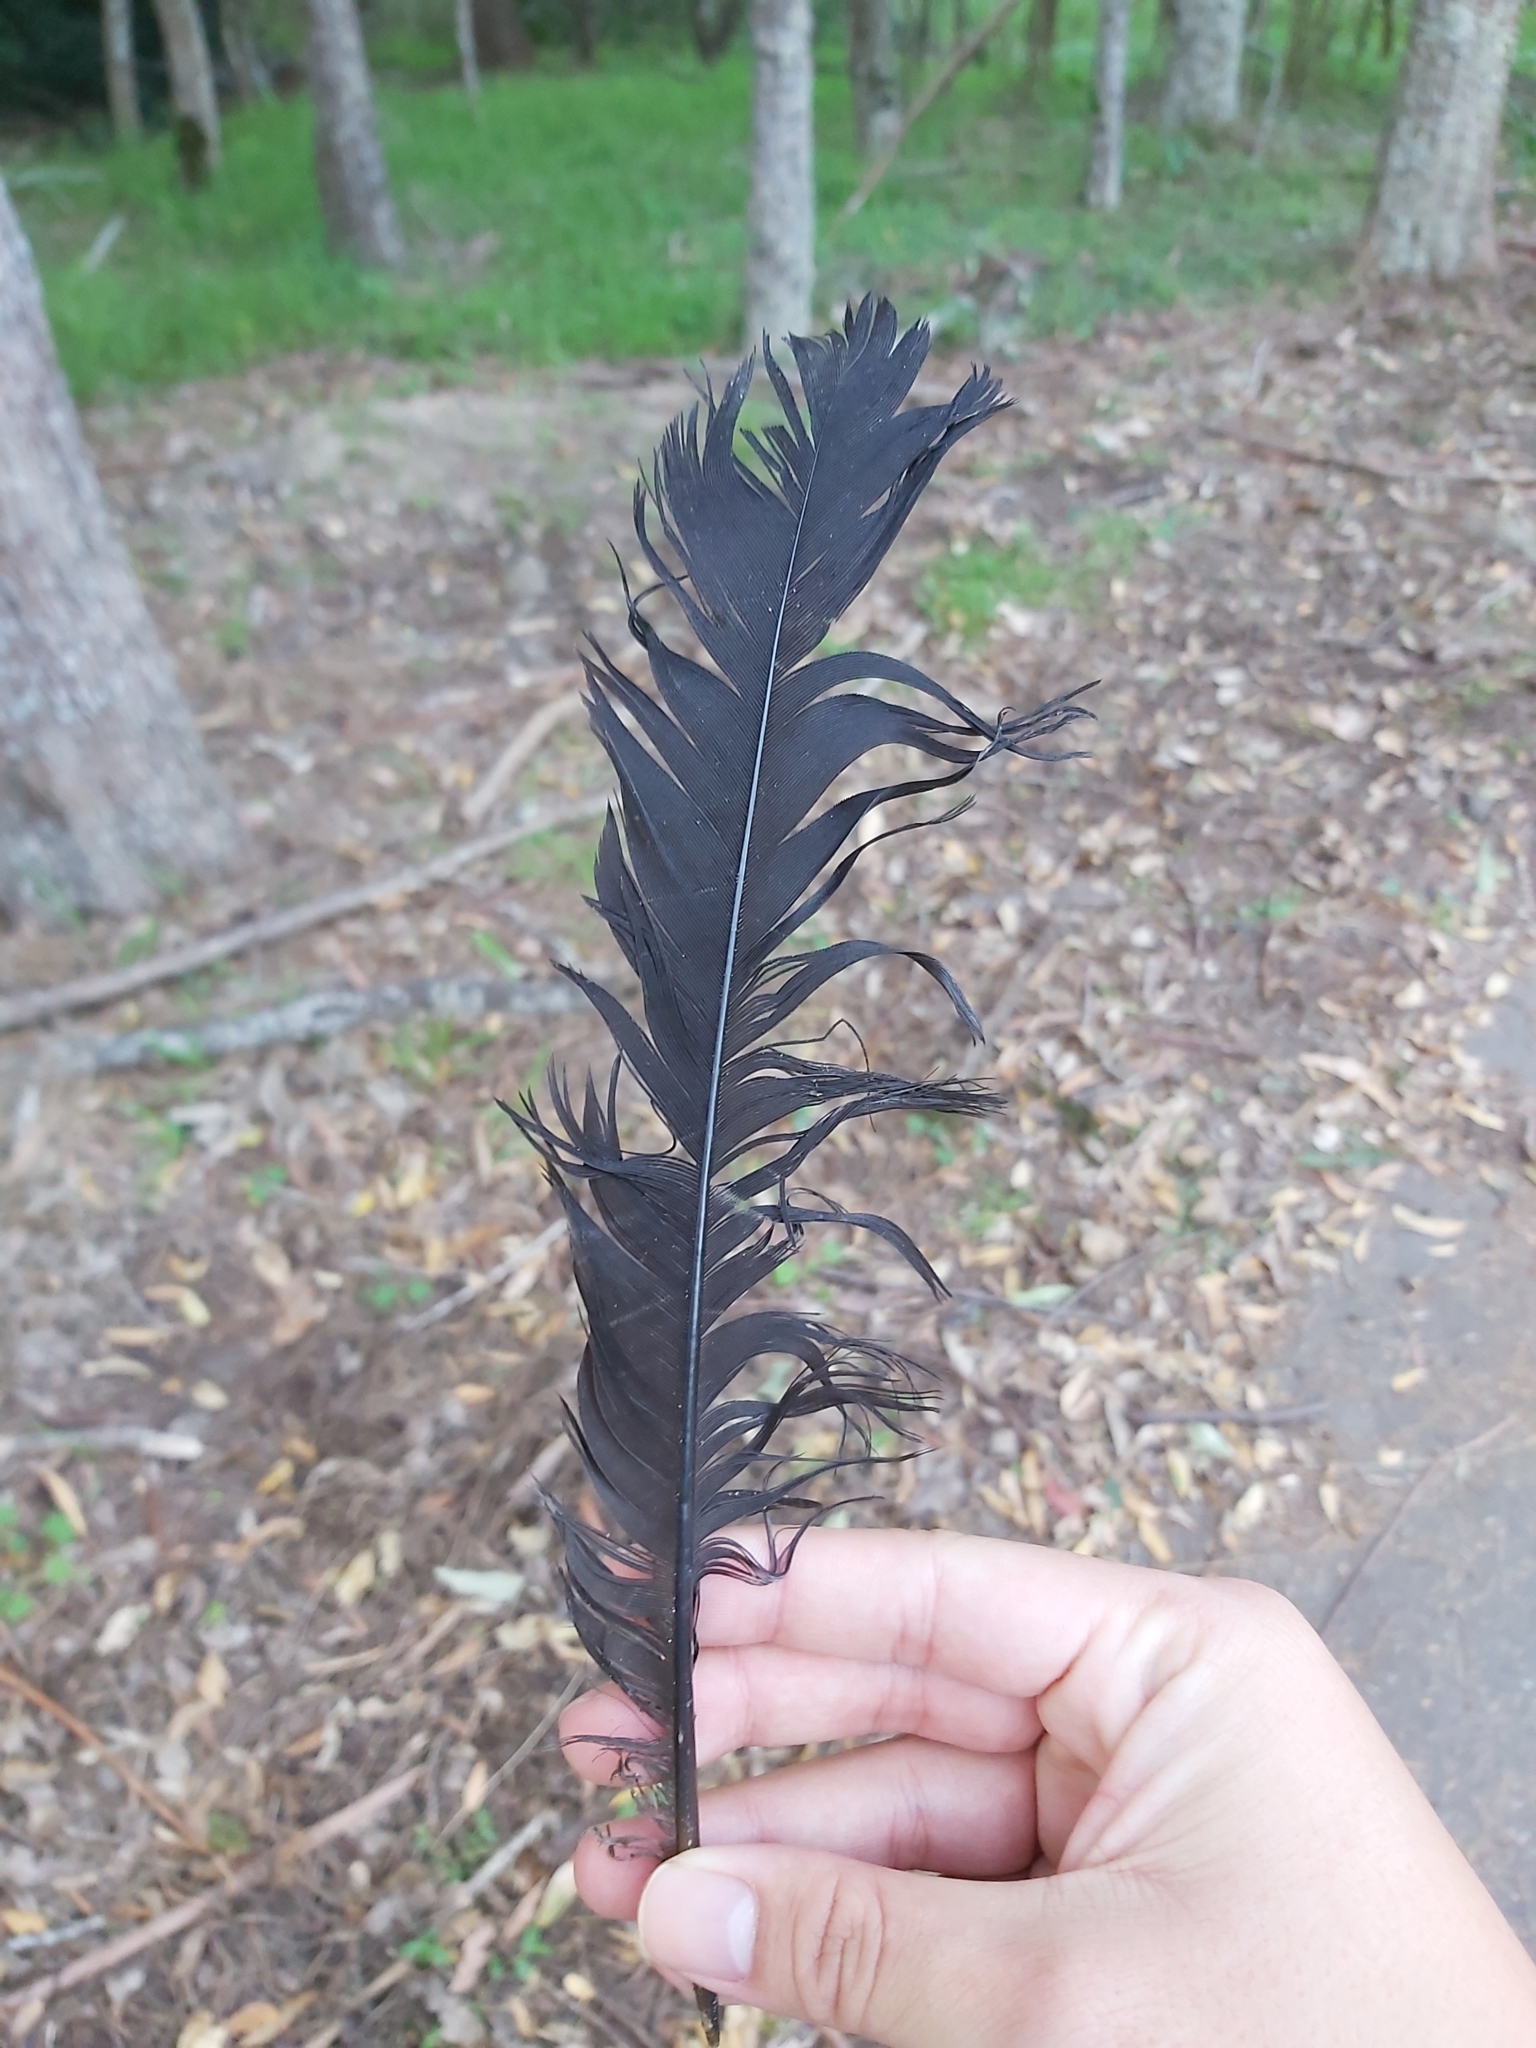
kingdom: Animalia
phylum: Chordata
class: Aves
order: Galliformes
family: Megapodiidae
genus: Alectura
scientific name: Alectura lathami
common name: Australian brushturkey
